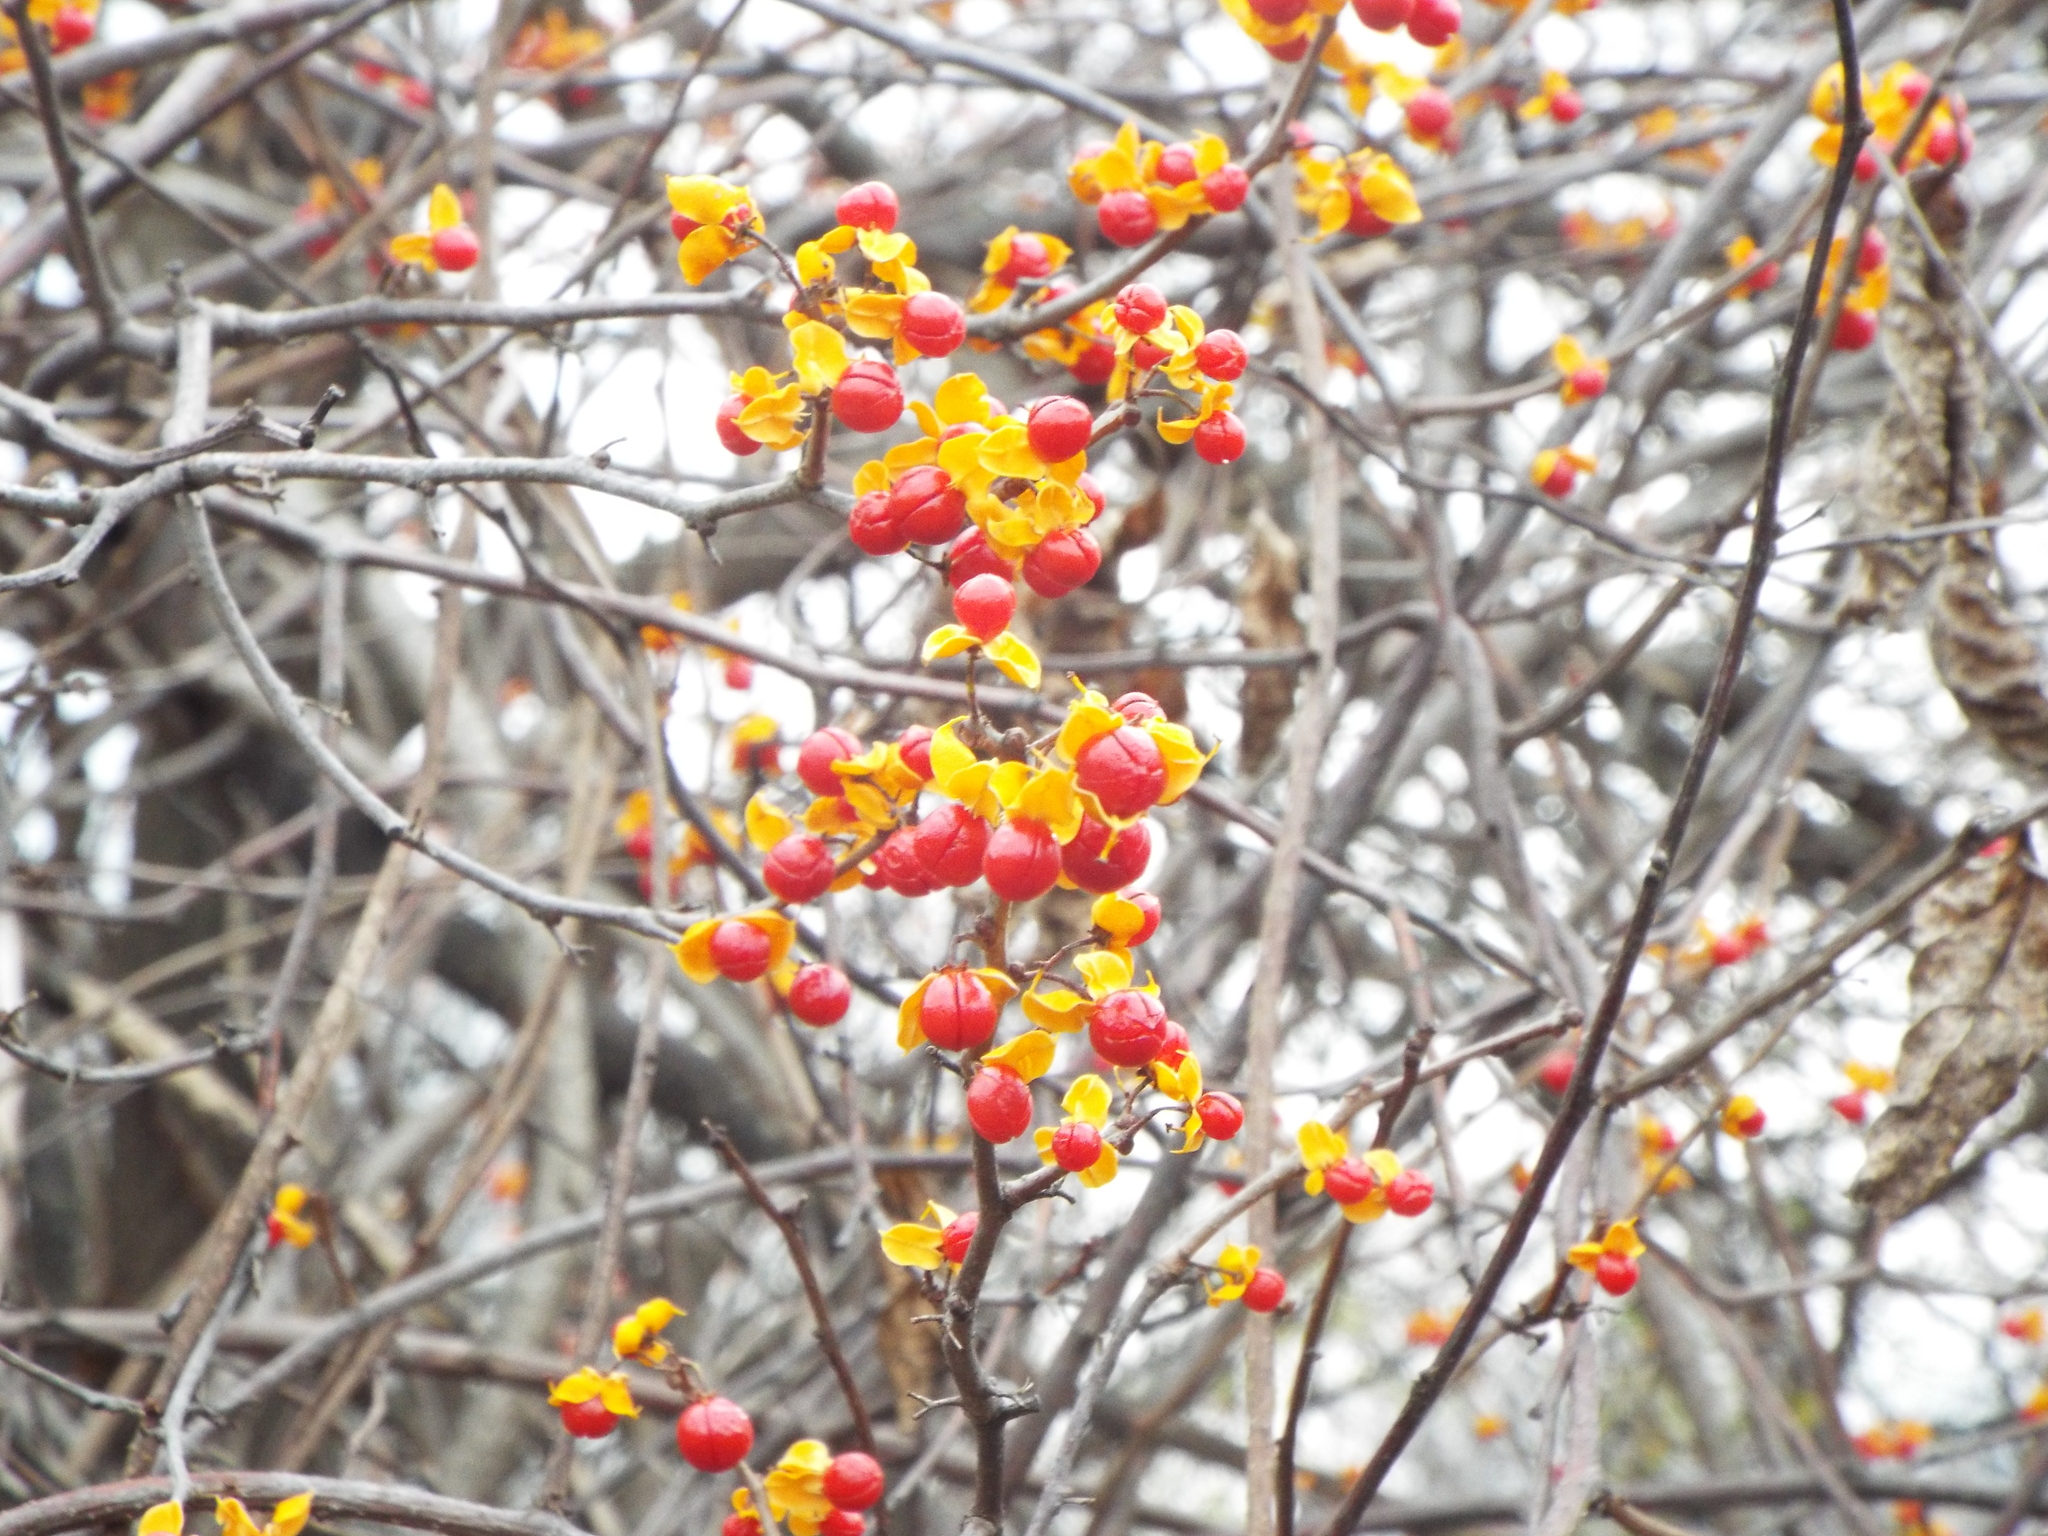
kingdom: Plantae
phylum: Tracheophyta
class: Magnoliopsida
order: Celastrales
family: Celastraceae
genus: Celastrus
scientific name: Celastrus orbiculatus
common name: Oriental bittersweet
